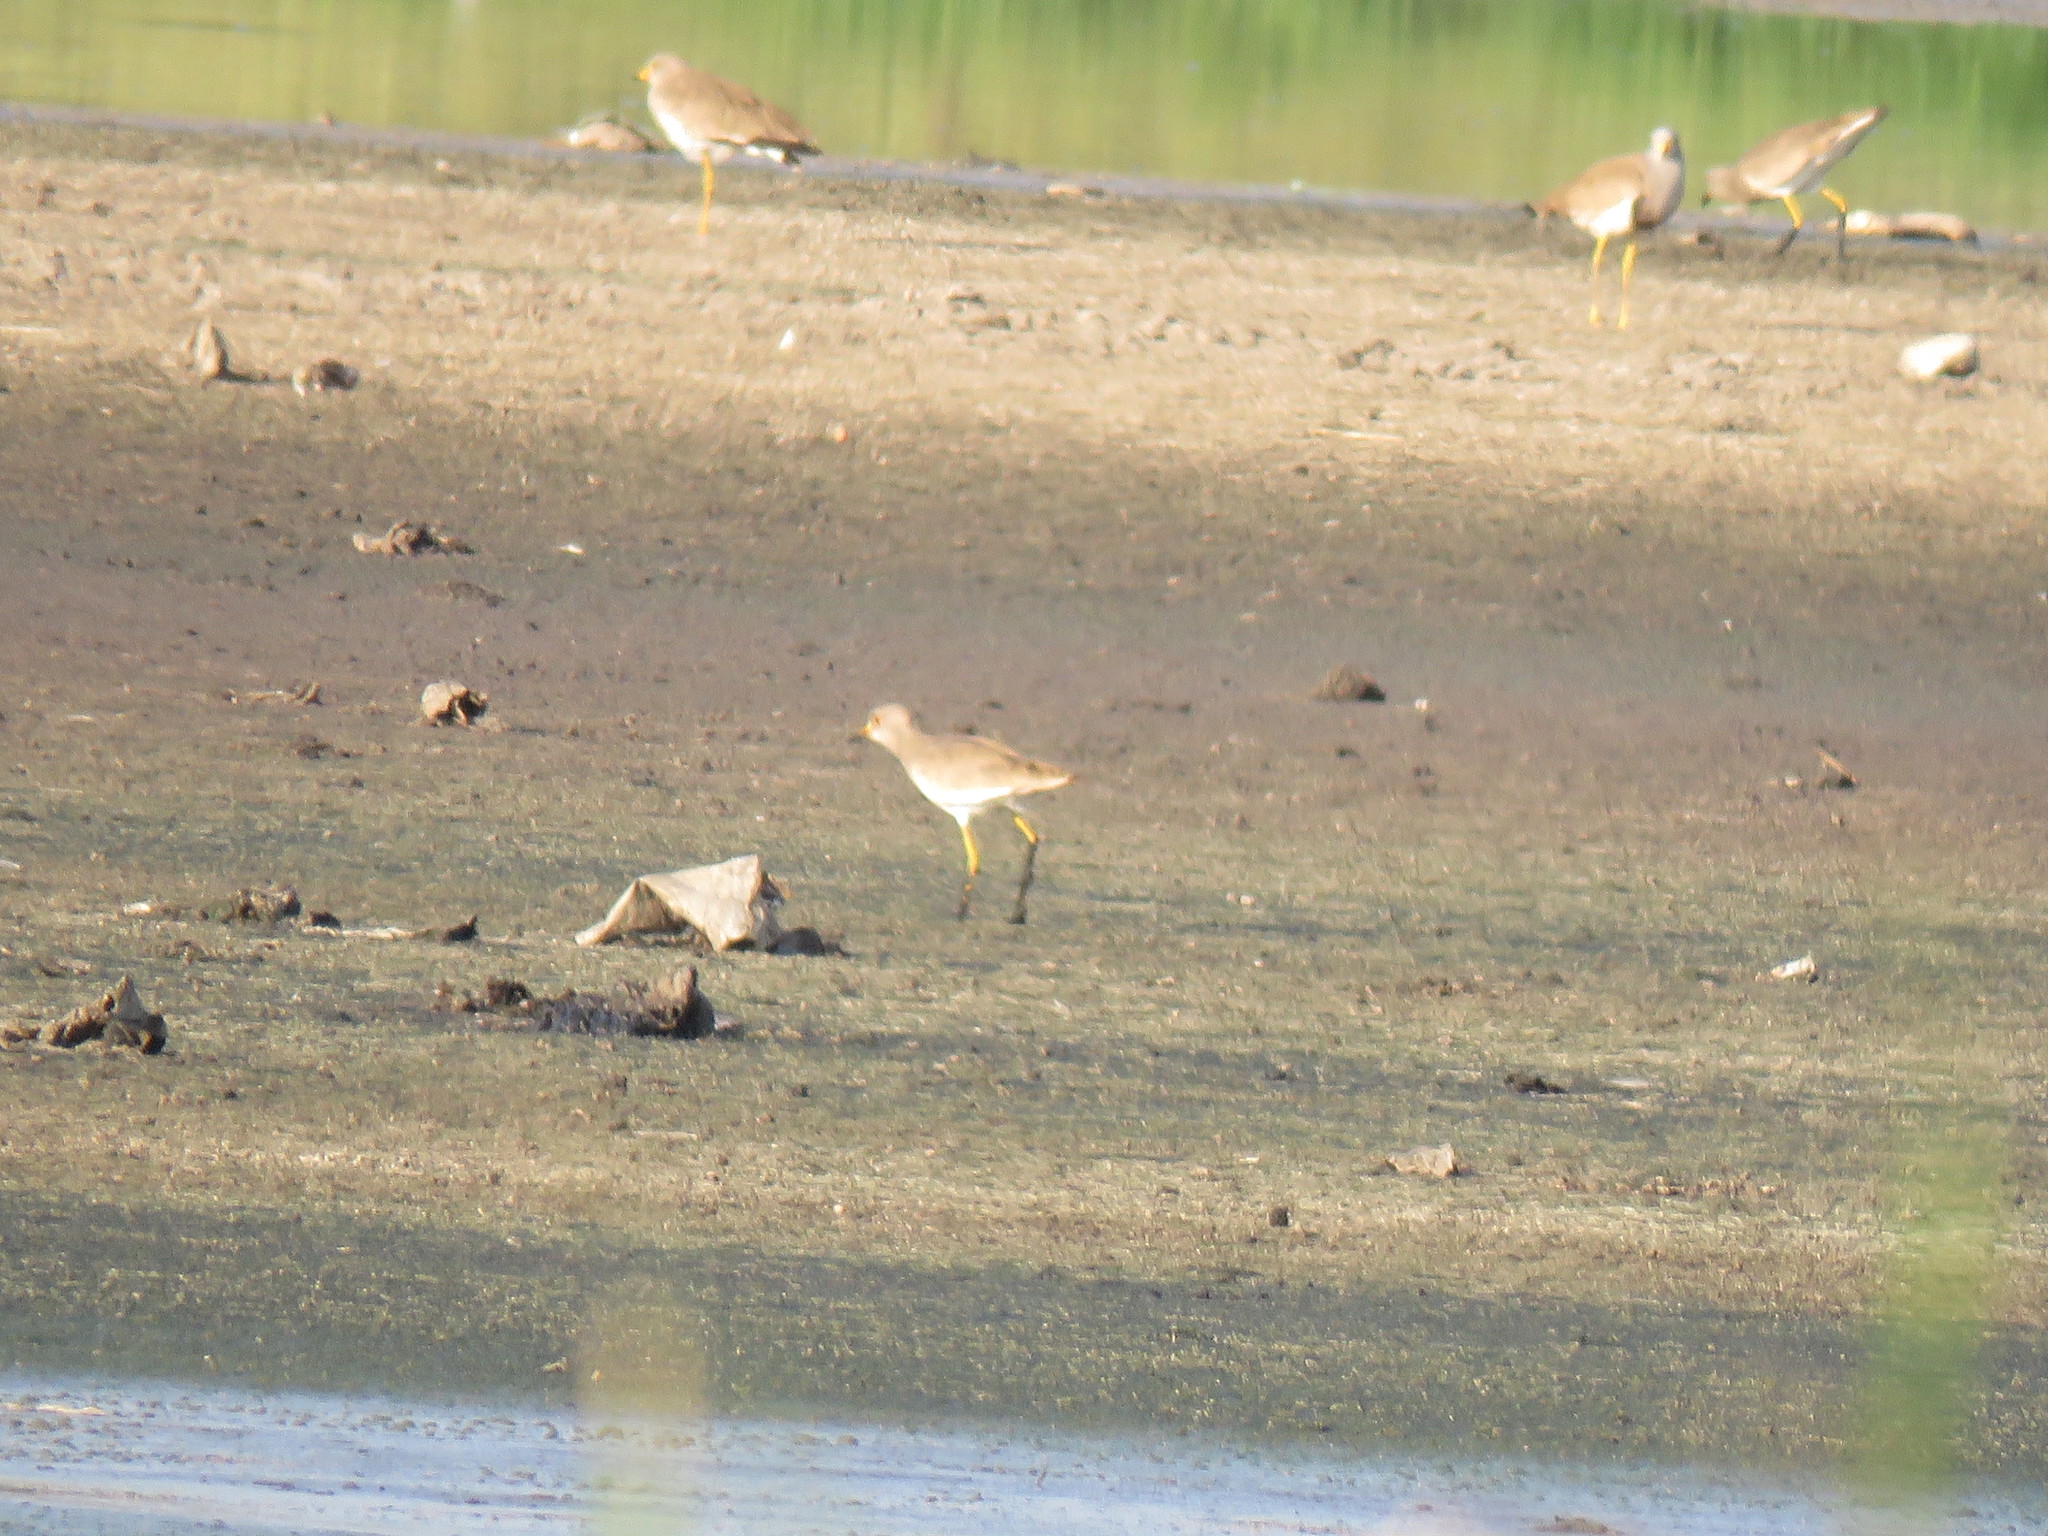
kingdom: Animalia
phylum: Chordata
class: Aves
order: Charadriiformes
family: Charadriidae
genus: Vanellus
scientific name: Vanellus cinereus
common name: Grey-headed lapwing
